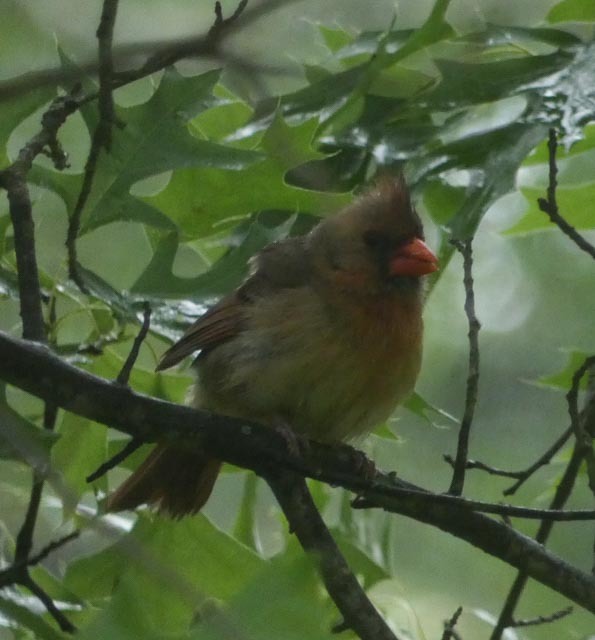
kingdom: Animalia
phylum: Chordata
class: Aves
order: Passeriformes
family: Cardinalidae
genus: Cardinalis
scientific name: Cardinalis cardinalis
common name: Northern cardinal
